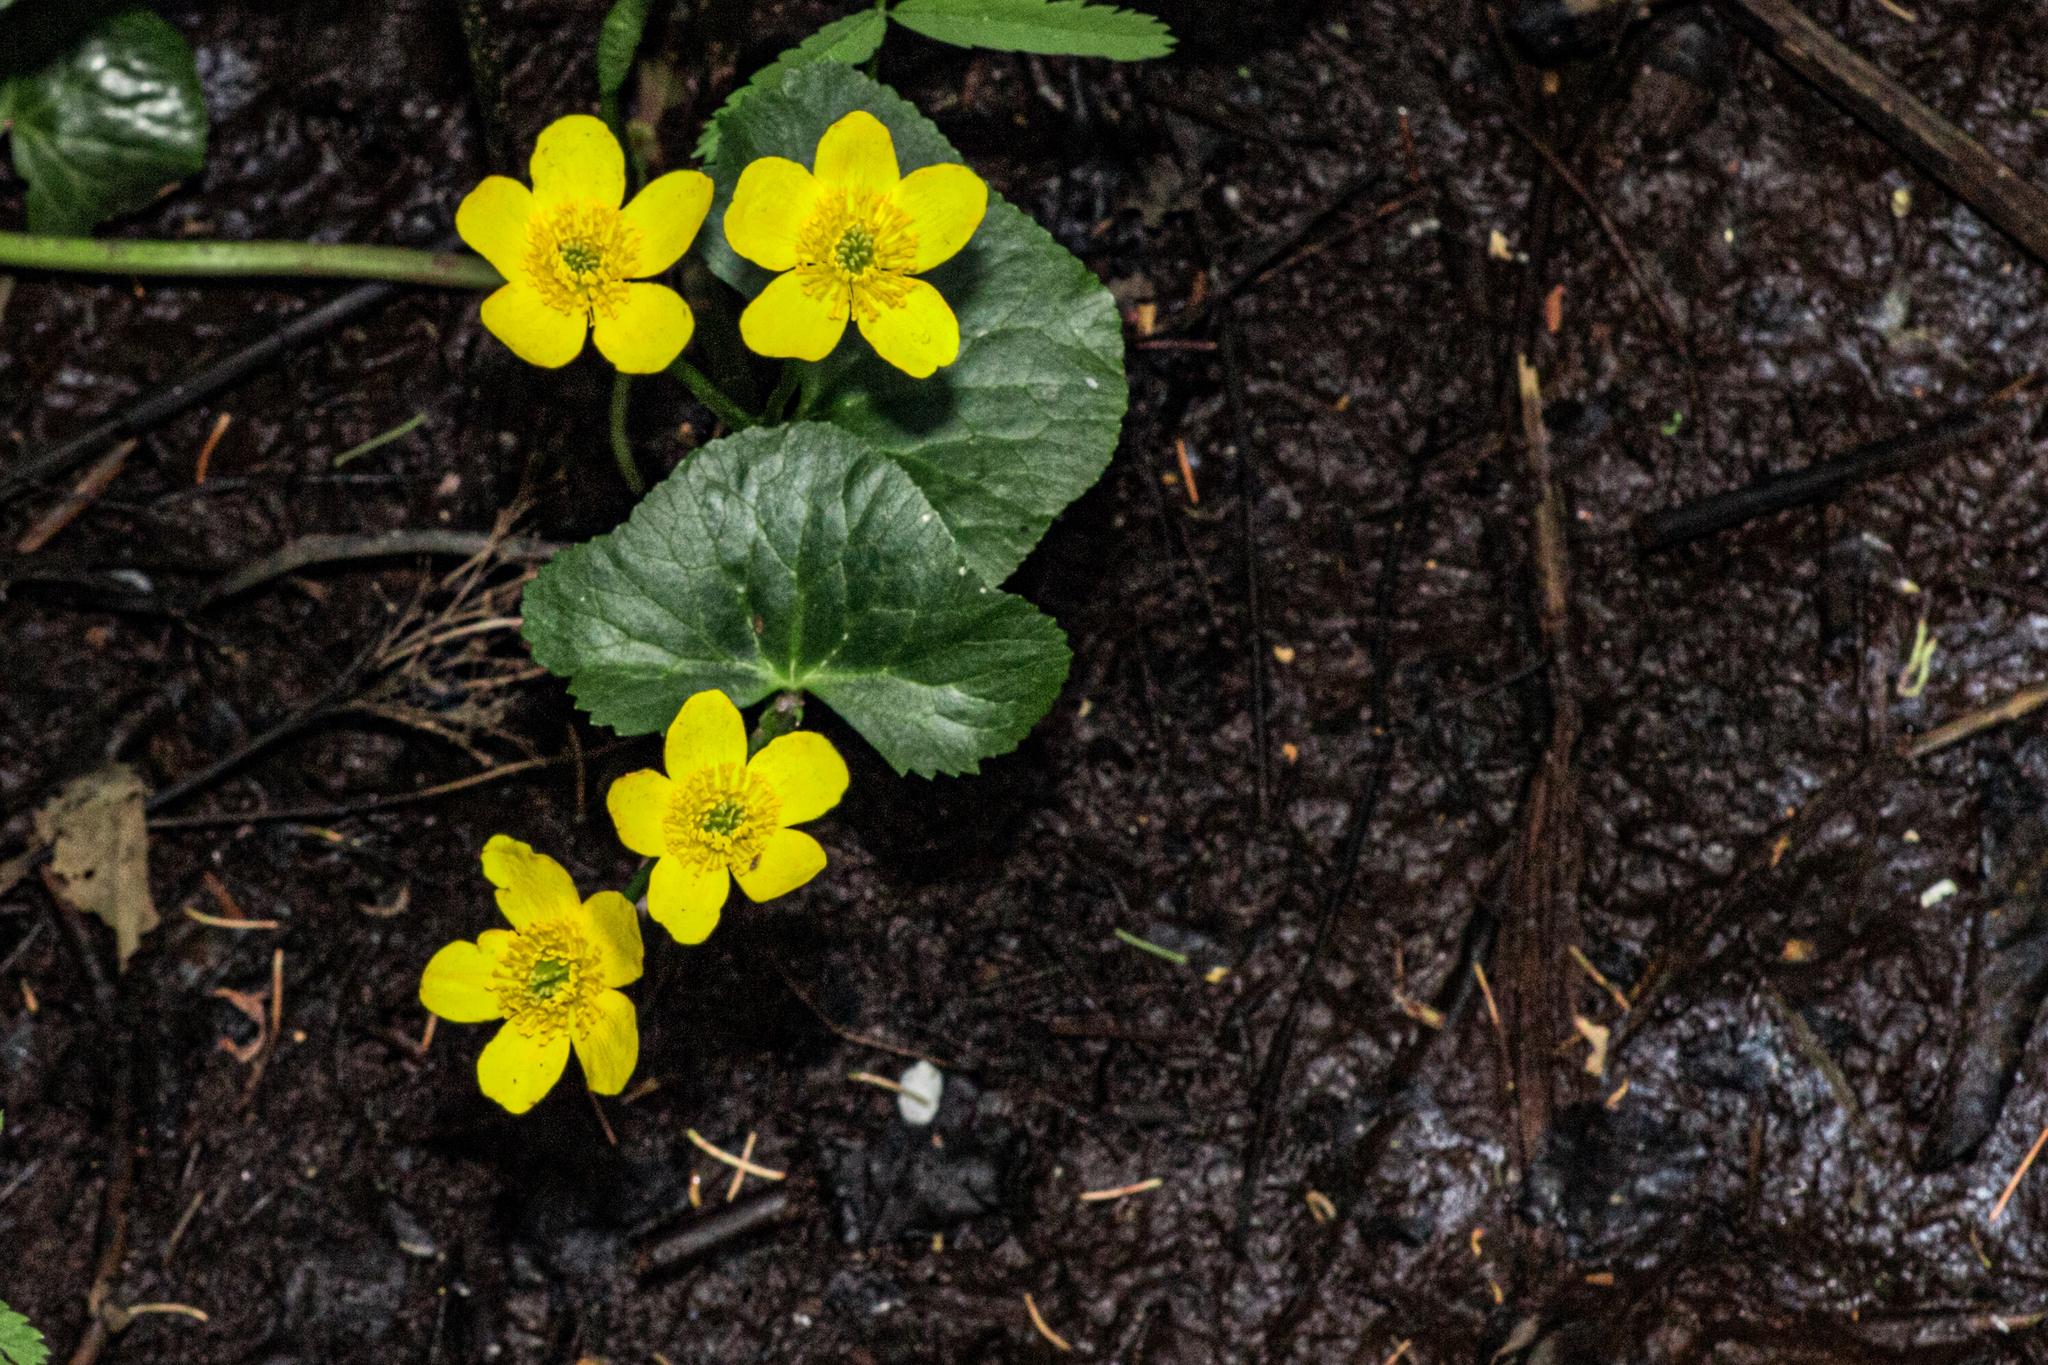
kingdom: Plantae
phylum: Tracheophyta
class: Magnoliopsida
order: Ranunculales
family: Ranunculaceae
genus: Caltha
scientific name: Caltha palustris
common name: Marsh marigold
